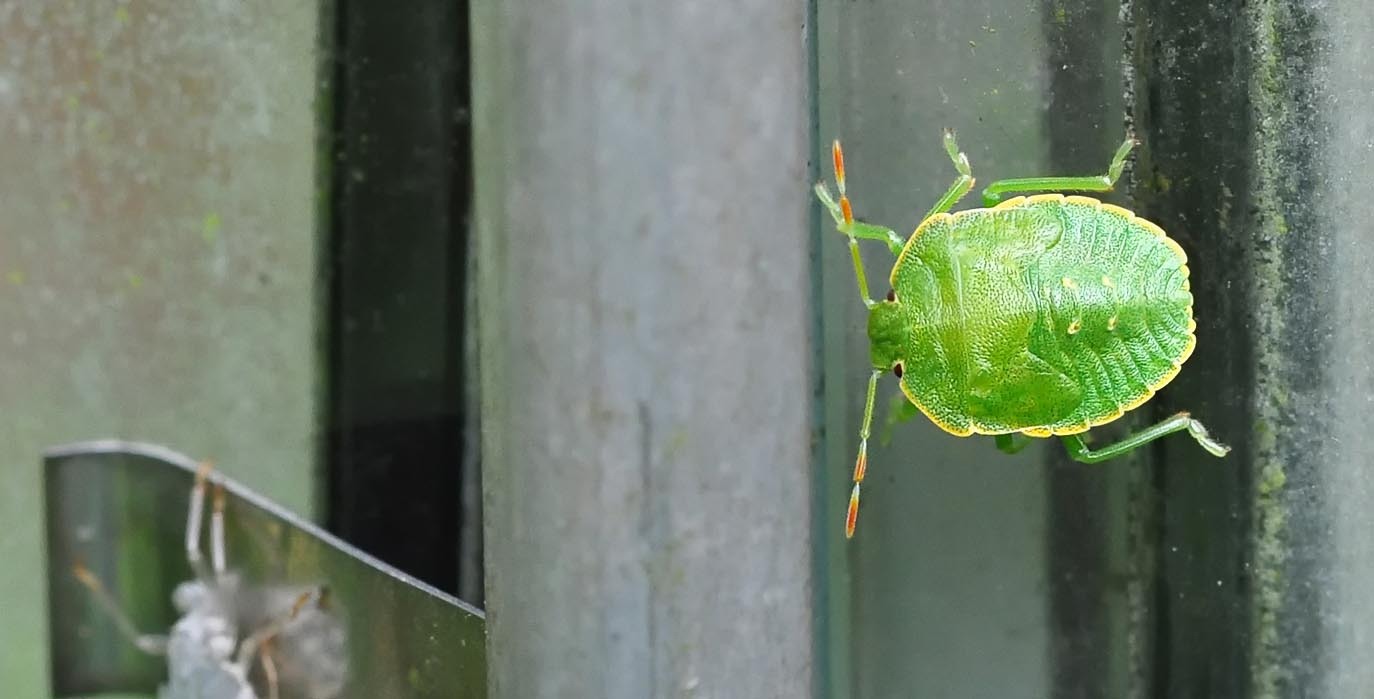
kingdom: Animalia
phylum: Arthropoda
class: Insecta
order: Hemiptera
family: Pentatomidae
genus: Palomena
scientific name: Palomena prasina
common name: Green shieldbug
